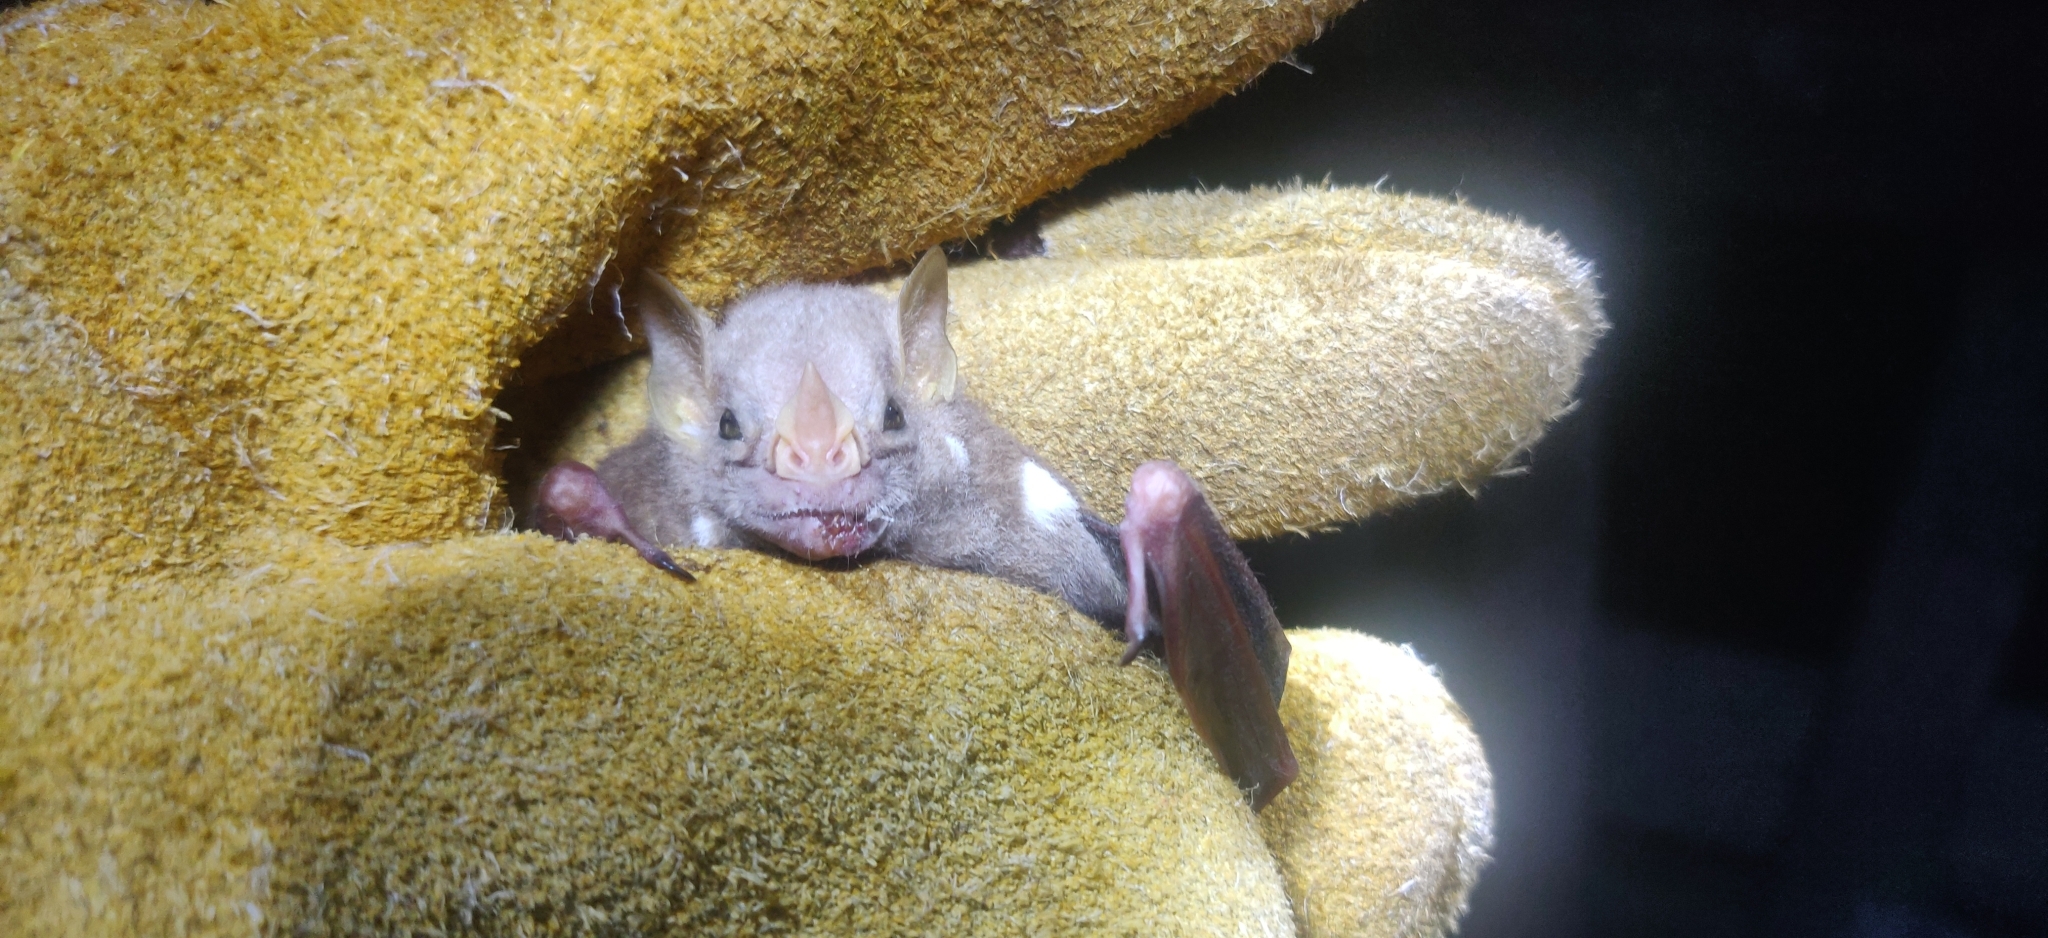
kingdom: Animalia
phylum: Chordata
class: Mammalia
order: Chiroptera
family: Phyllostomidae
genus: Ametrida
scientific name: Ametrida centurio
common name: Little white-shouldered bat
